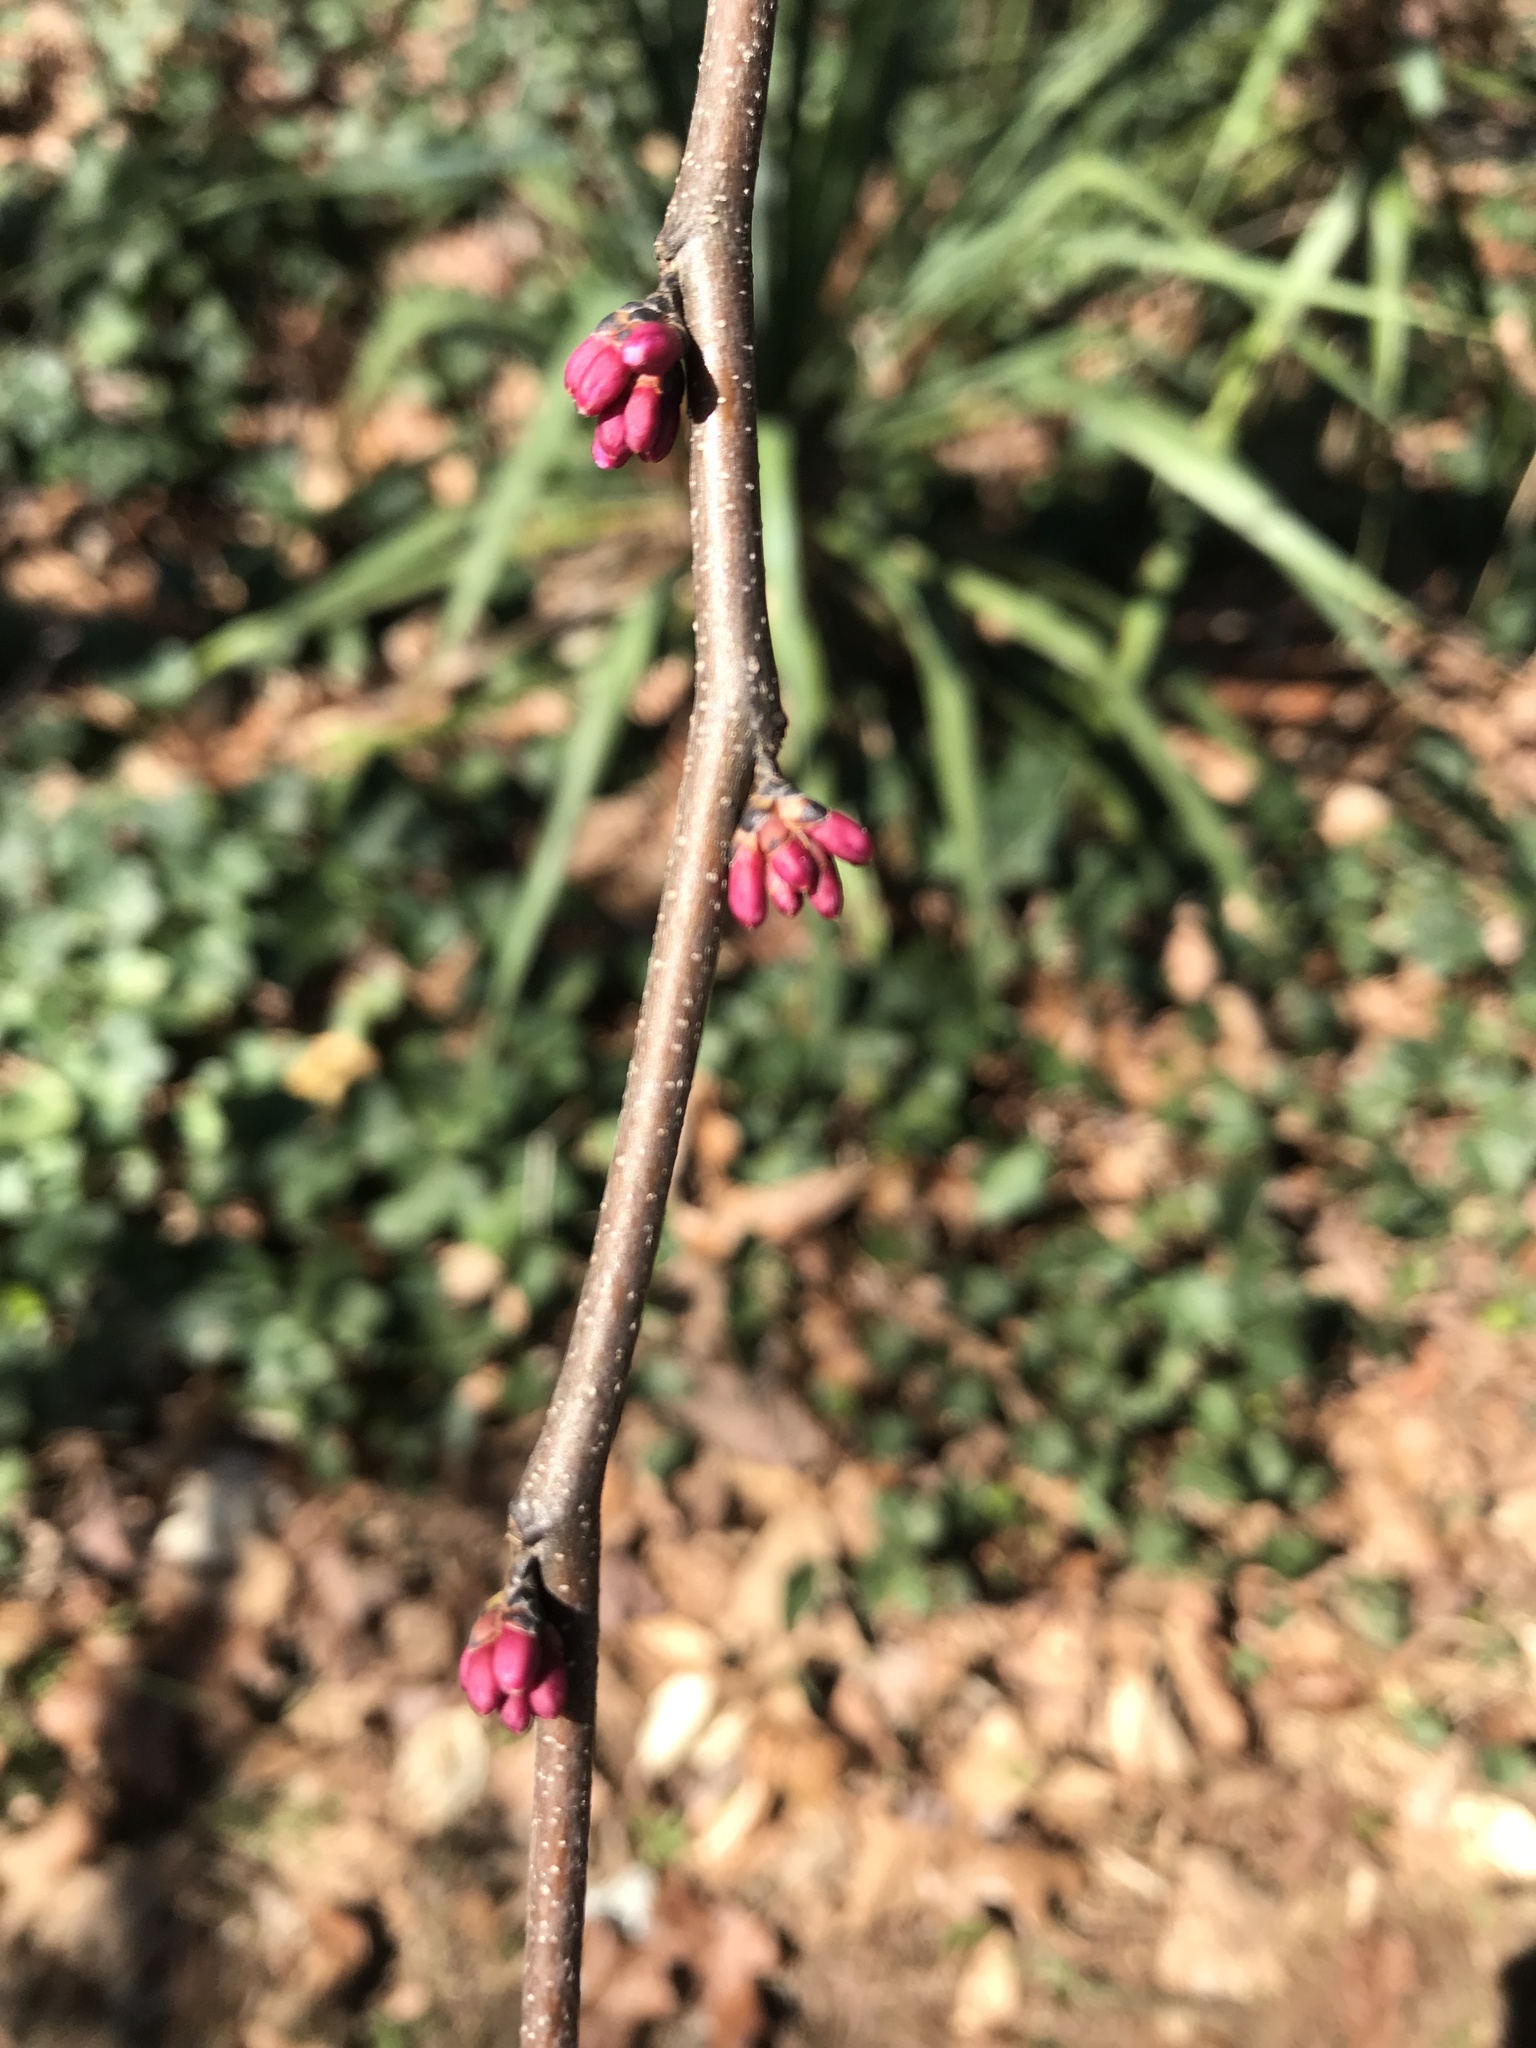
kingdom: Plantae
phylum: Tracheophyta
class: Magnoliopsida
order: Fabales
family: Fabaceae
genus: Cercis
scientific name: Cercis canadensis
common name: Eastern redbud
